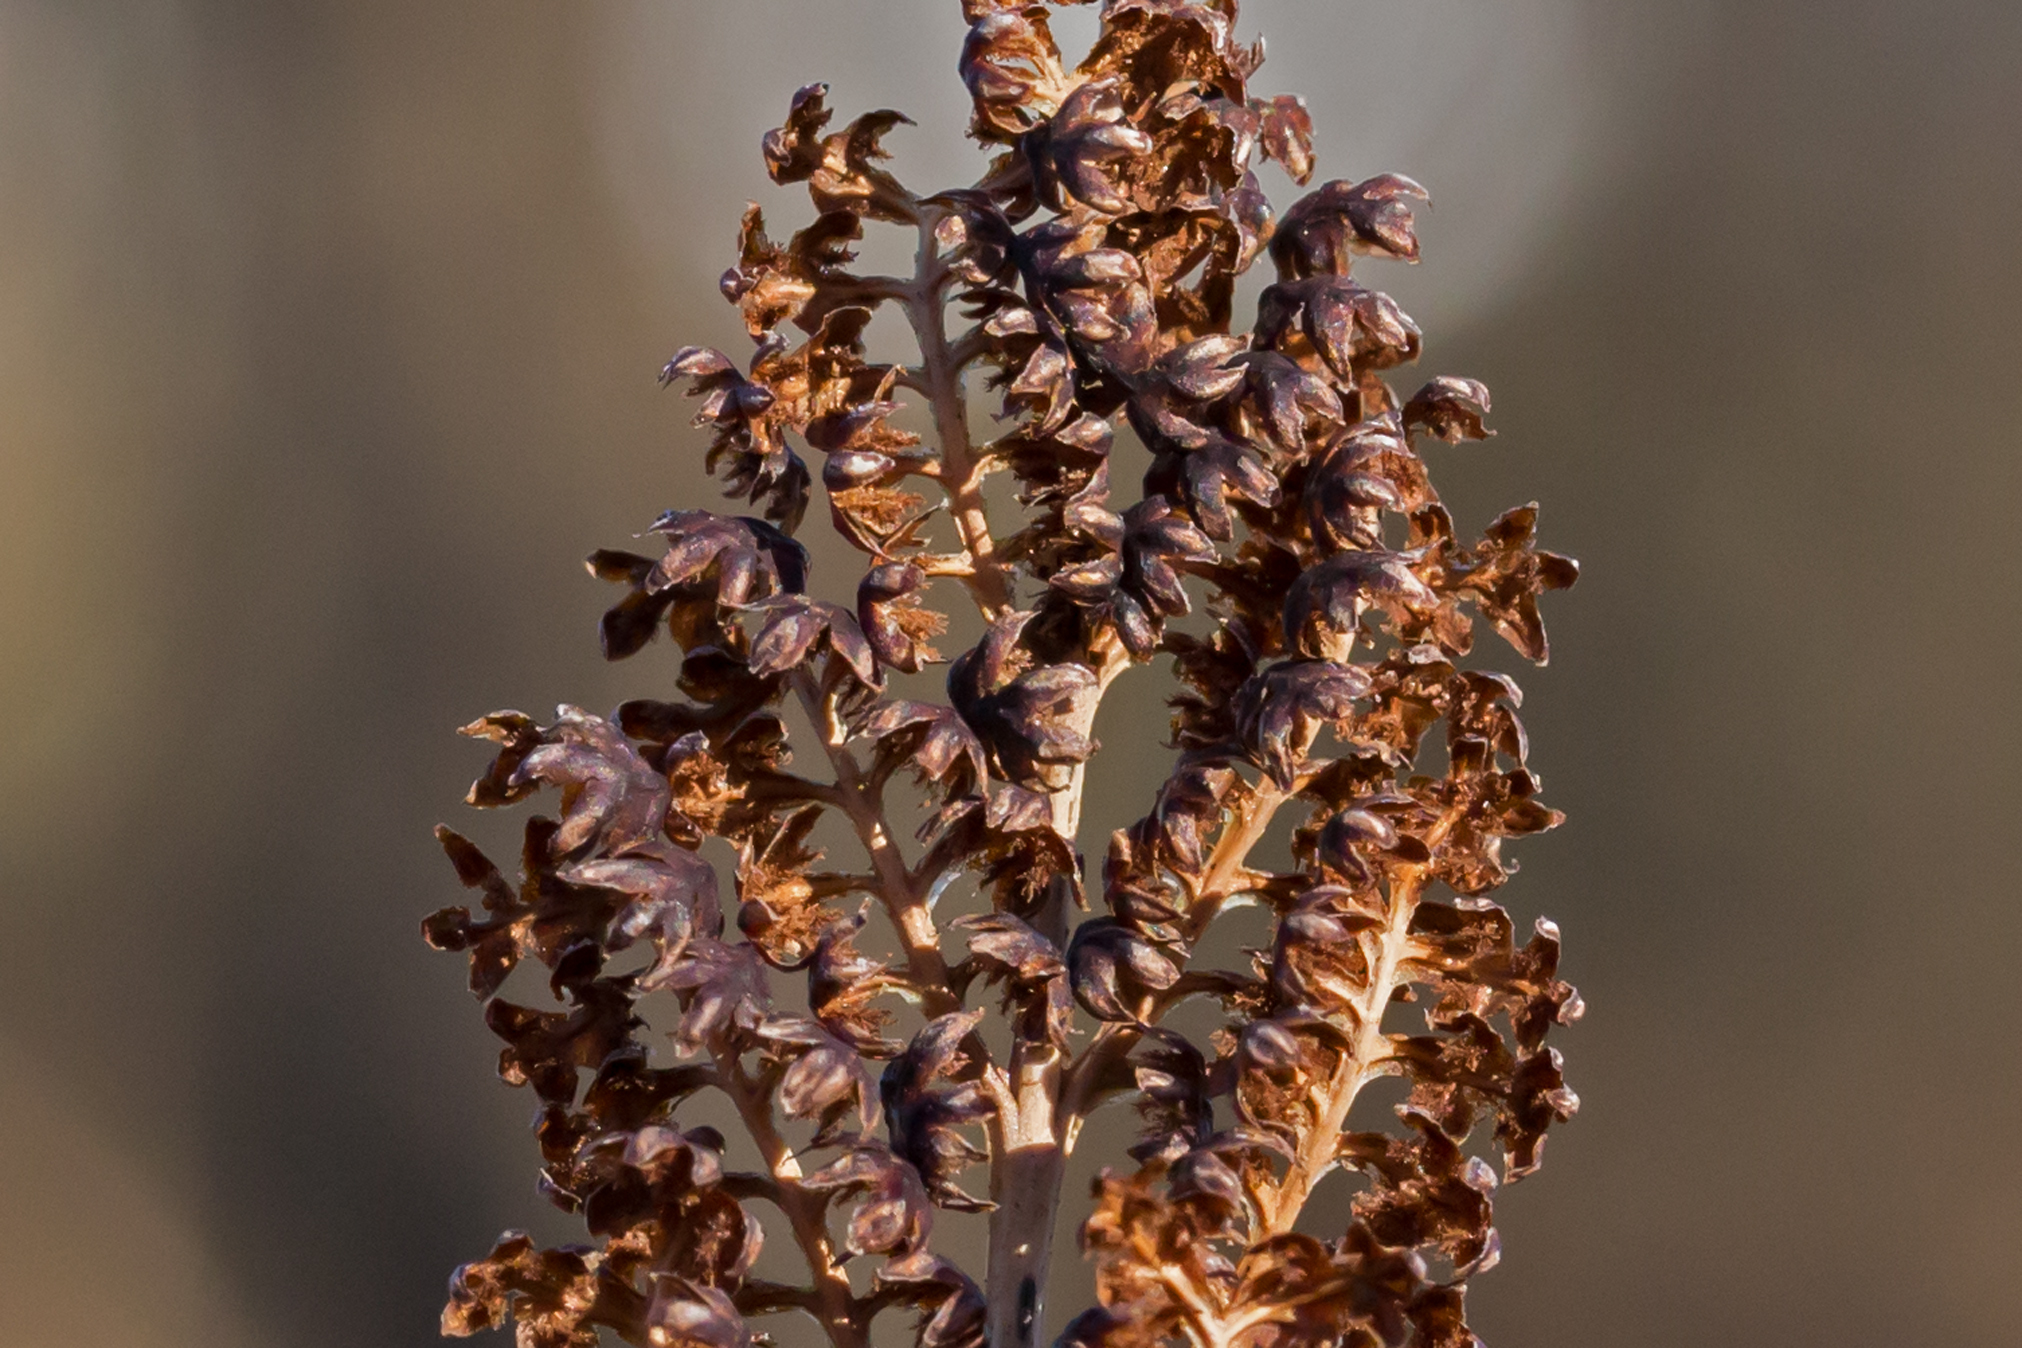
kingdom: Plantae
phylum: Tracheophyta
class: Polypodiopsida
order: Polypodiales
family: Onocleaceae
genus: Onoclea
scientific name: Onoclea sensibilis
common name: Sensitive fern
